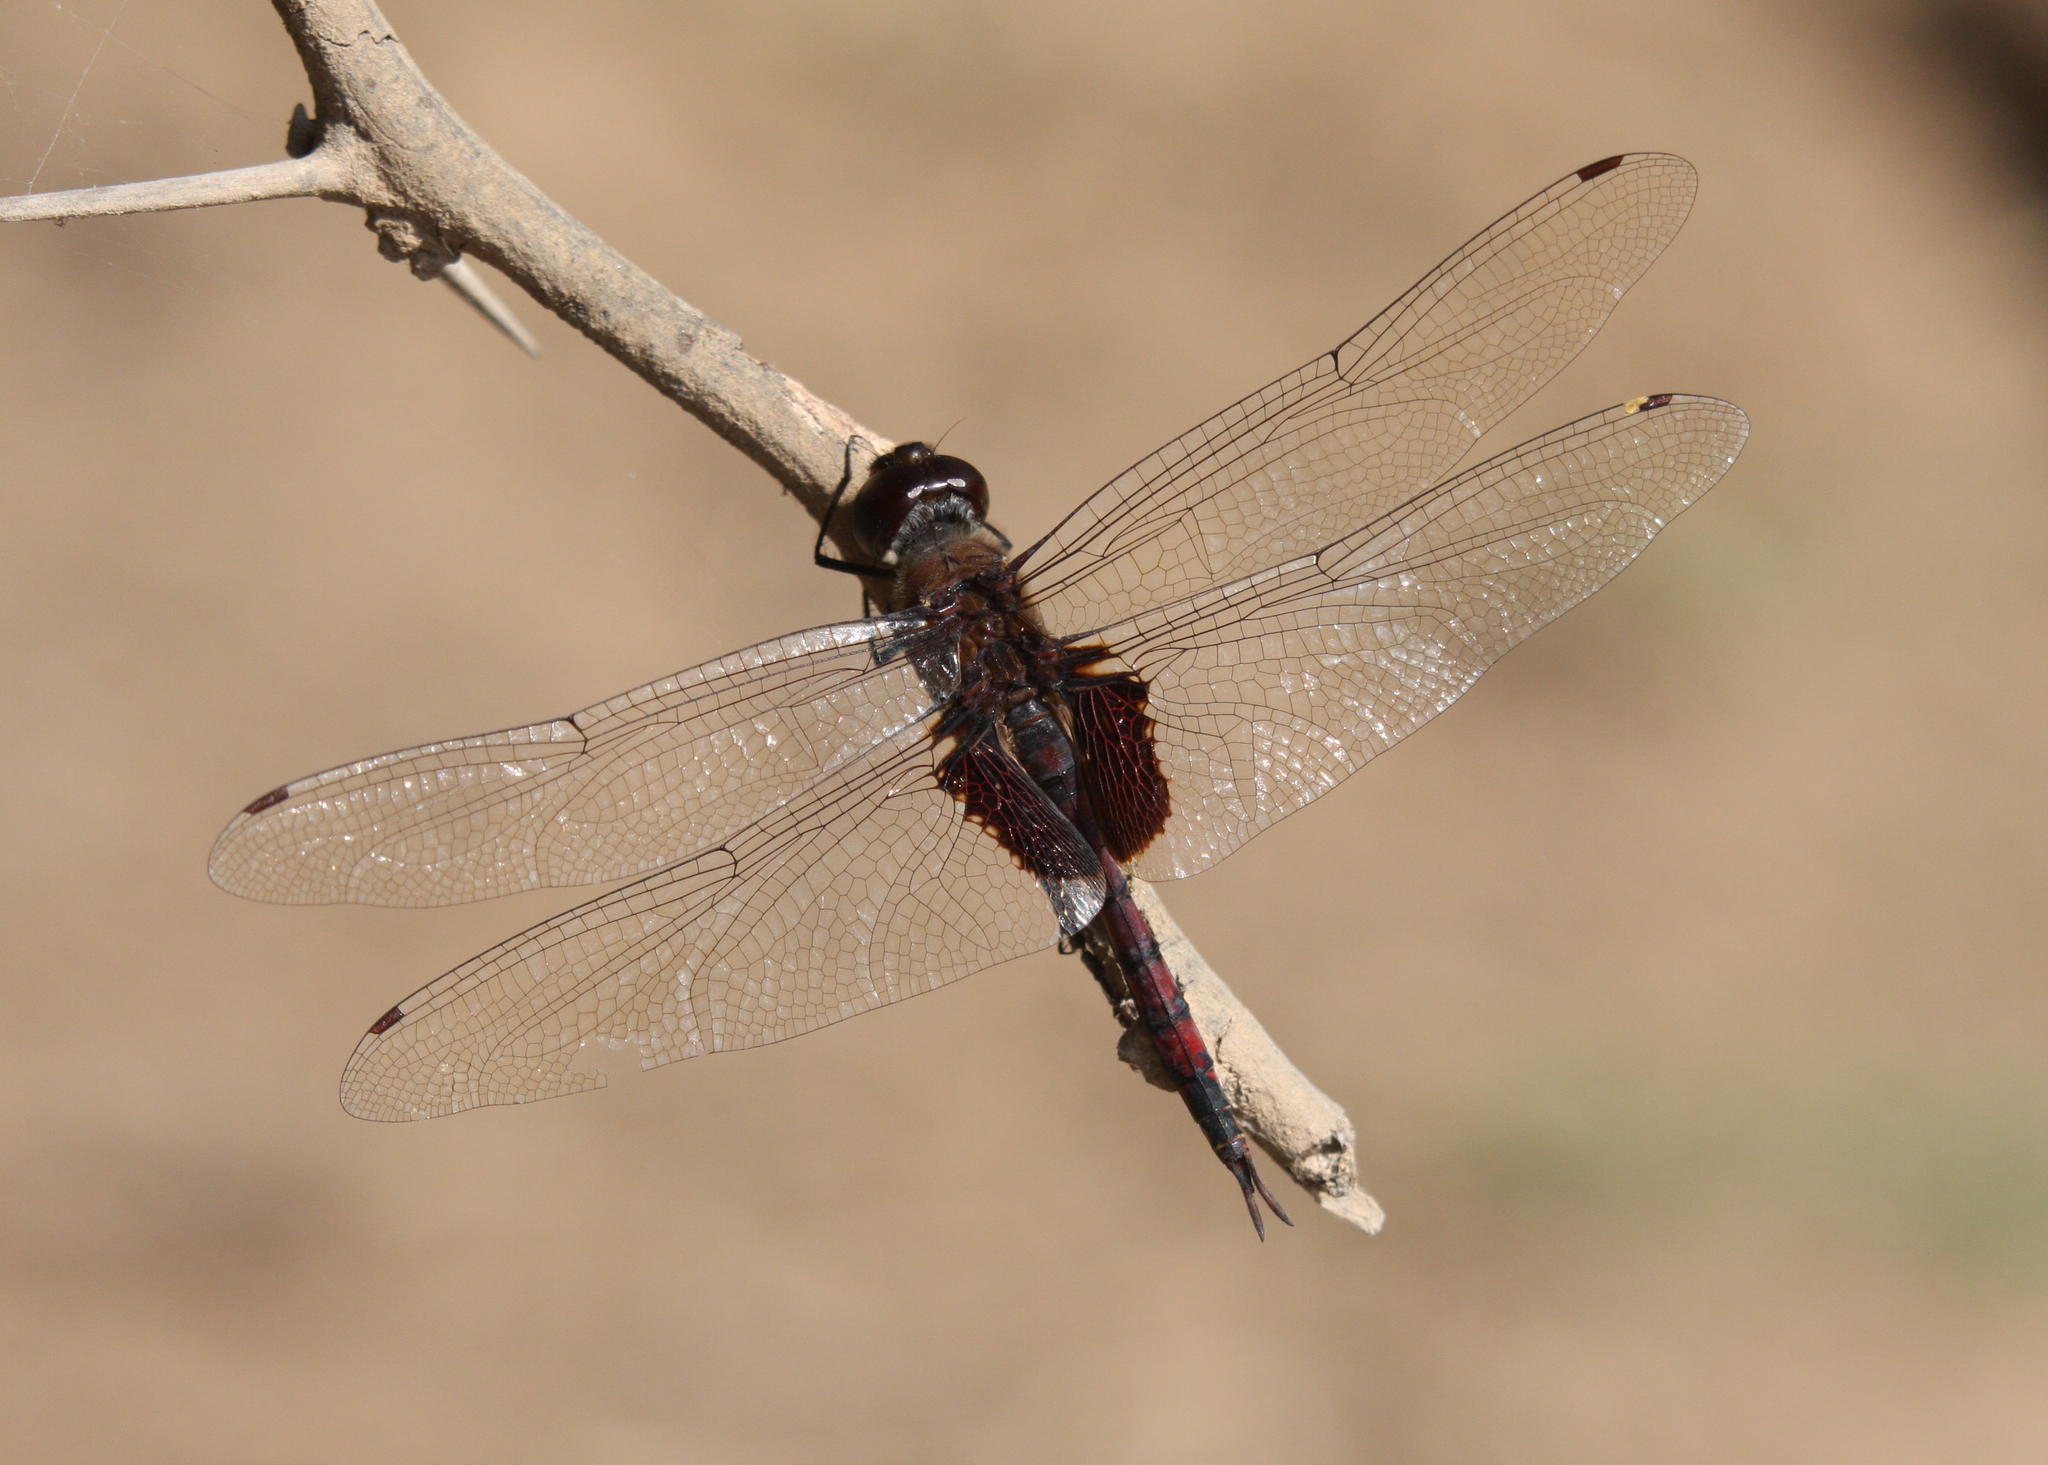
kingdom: Animalia
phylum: Arthropoda
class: Insecta
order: Odonata
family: Libellulidae
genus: Tramea
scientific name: Tramea limbata
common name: Ferruginous glider
